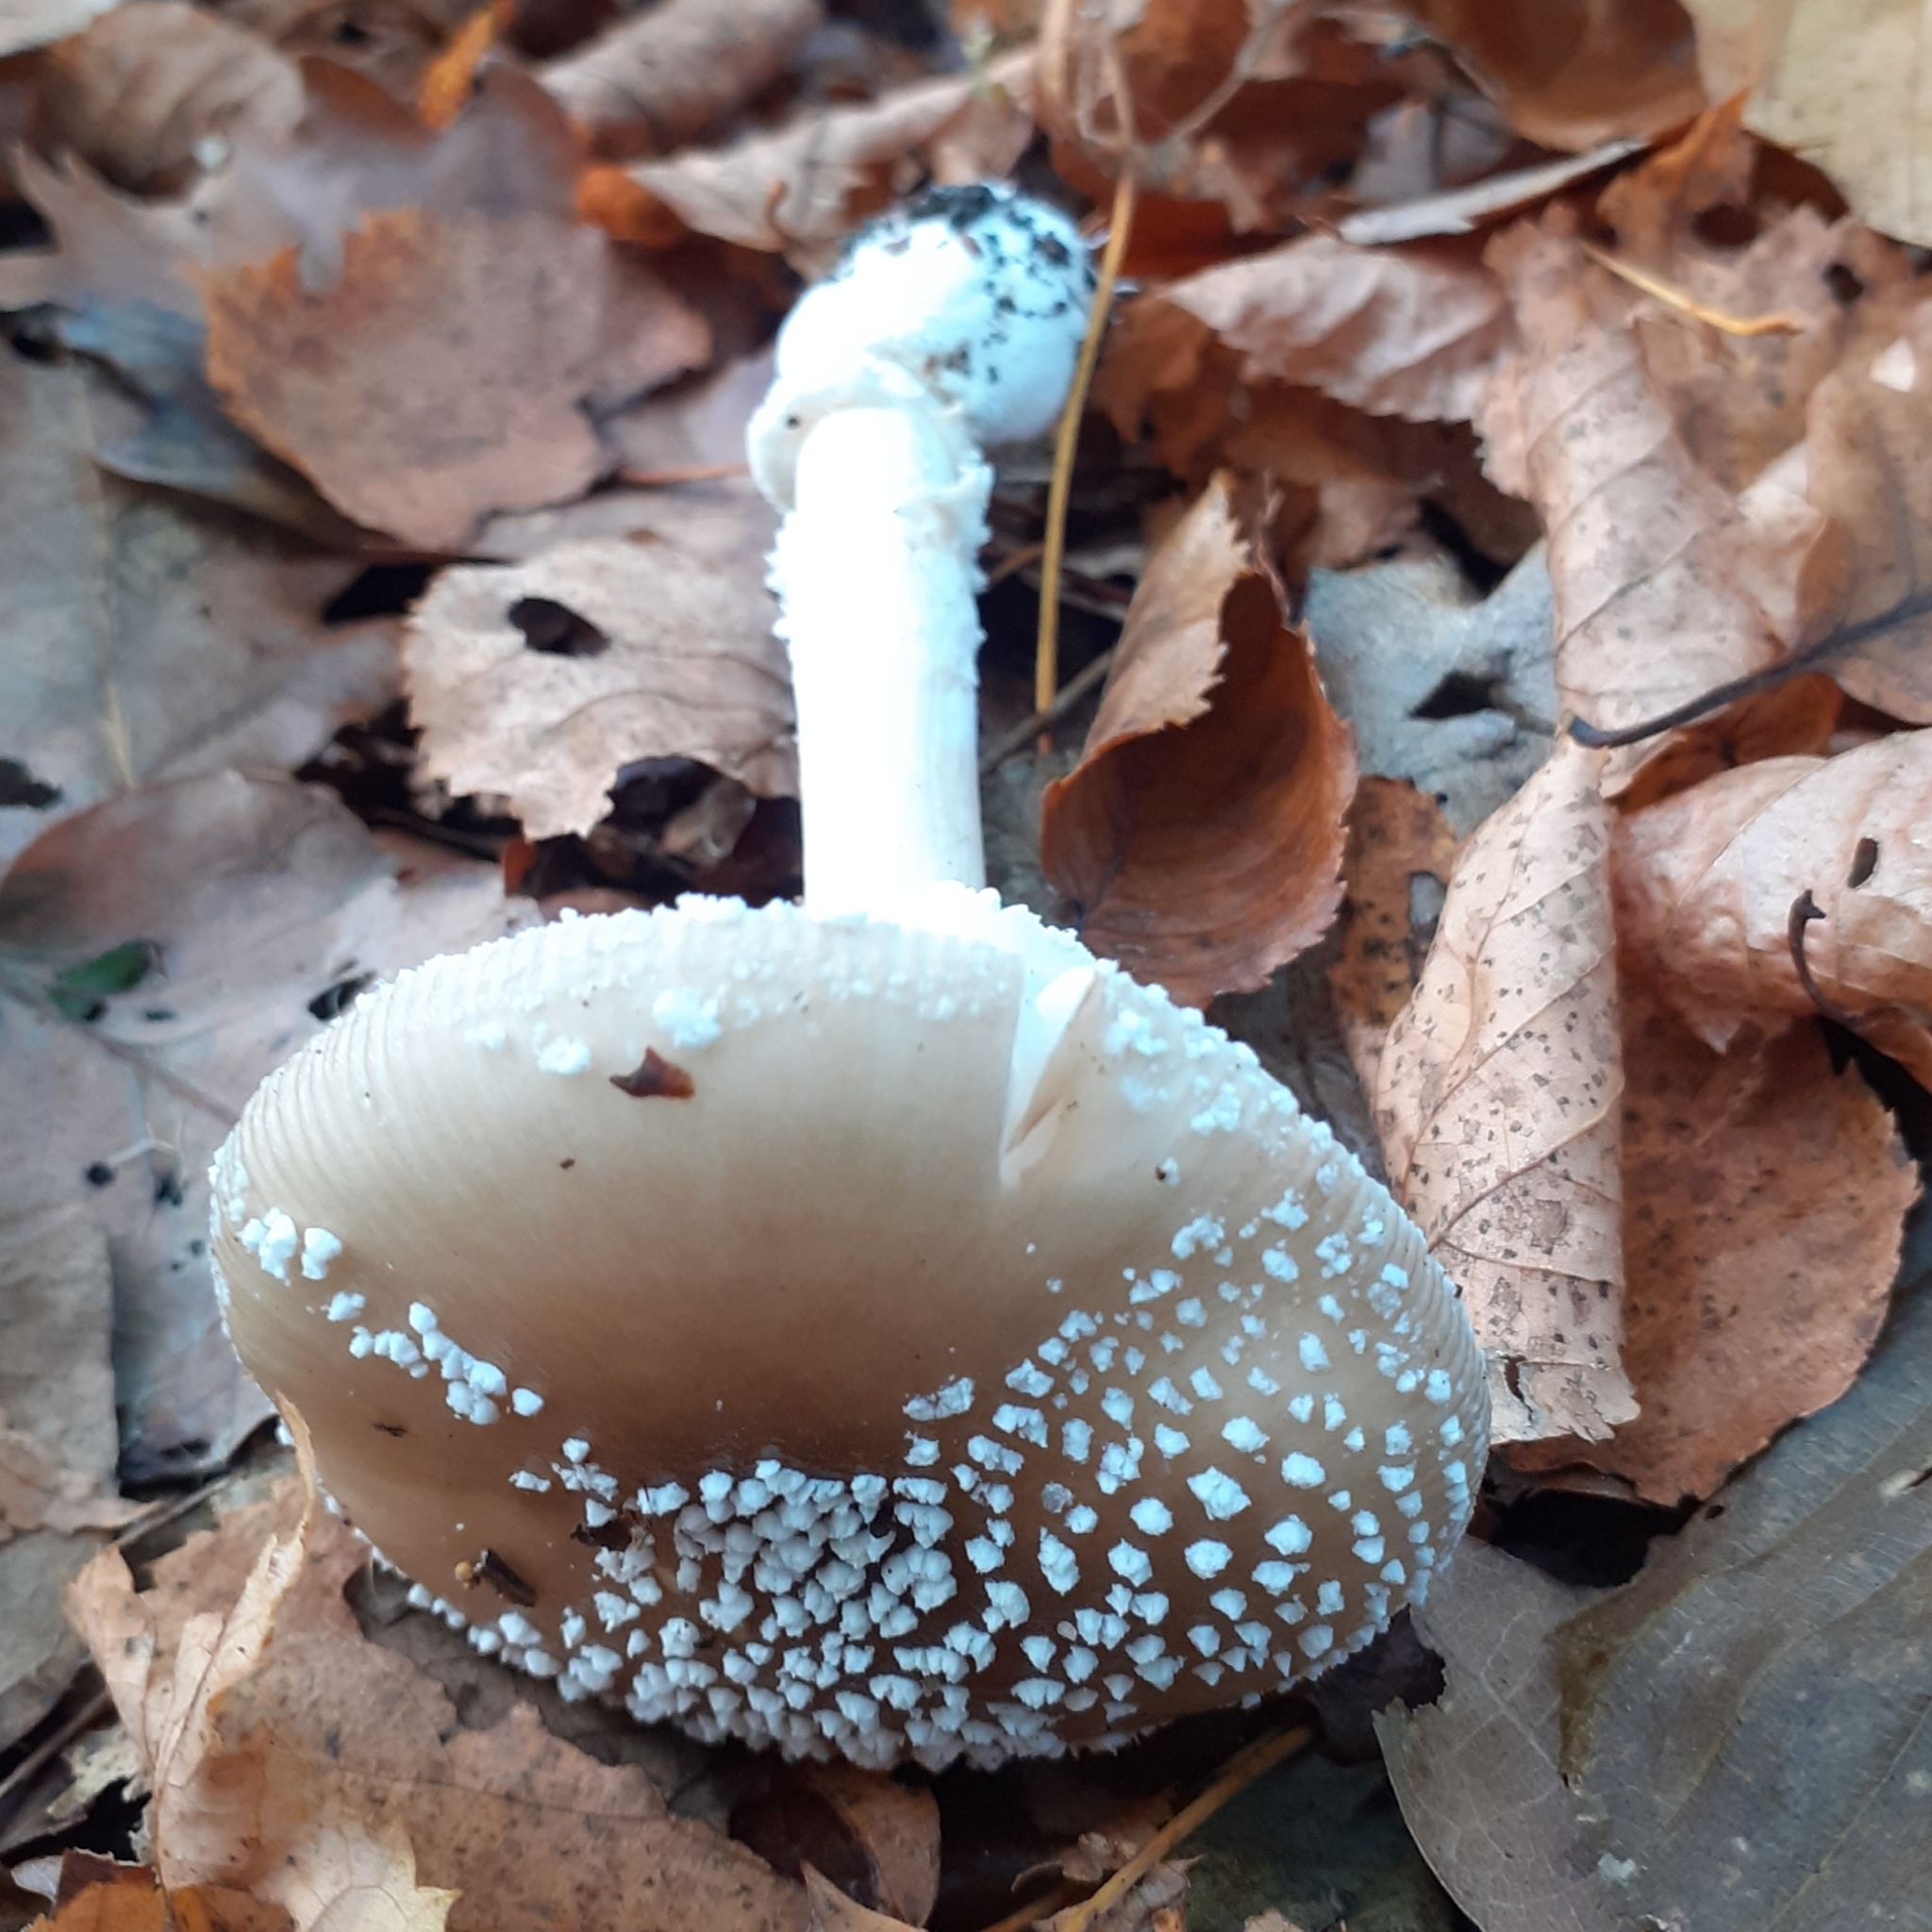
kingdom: Fungi
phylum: Basidiomycota
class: Agaricomycetes
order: Agaricales
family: Amanitaceae
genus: Amanita
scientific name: Amanita pantherina
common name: Panthercap
